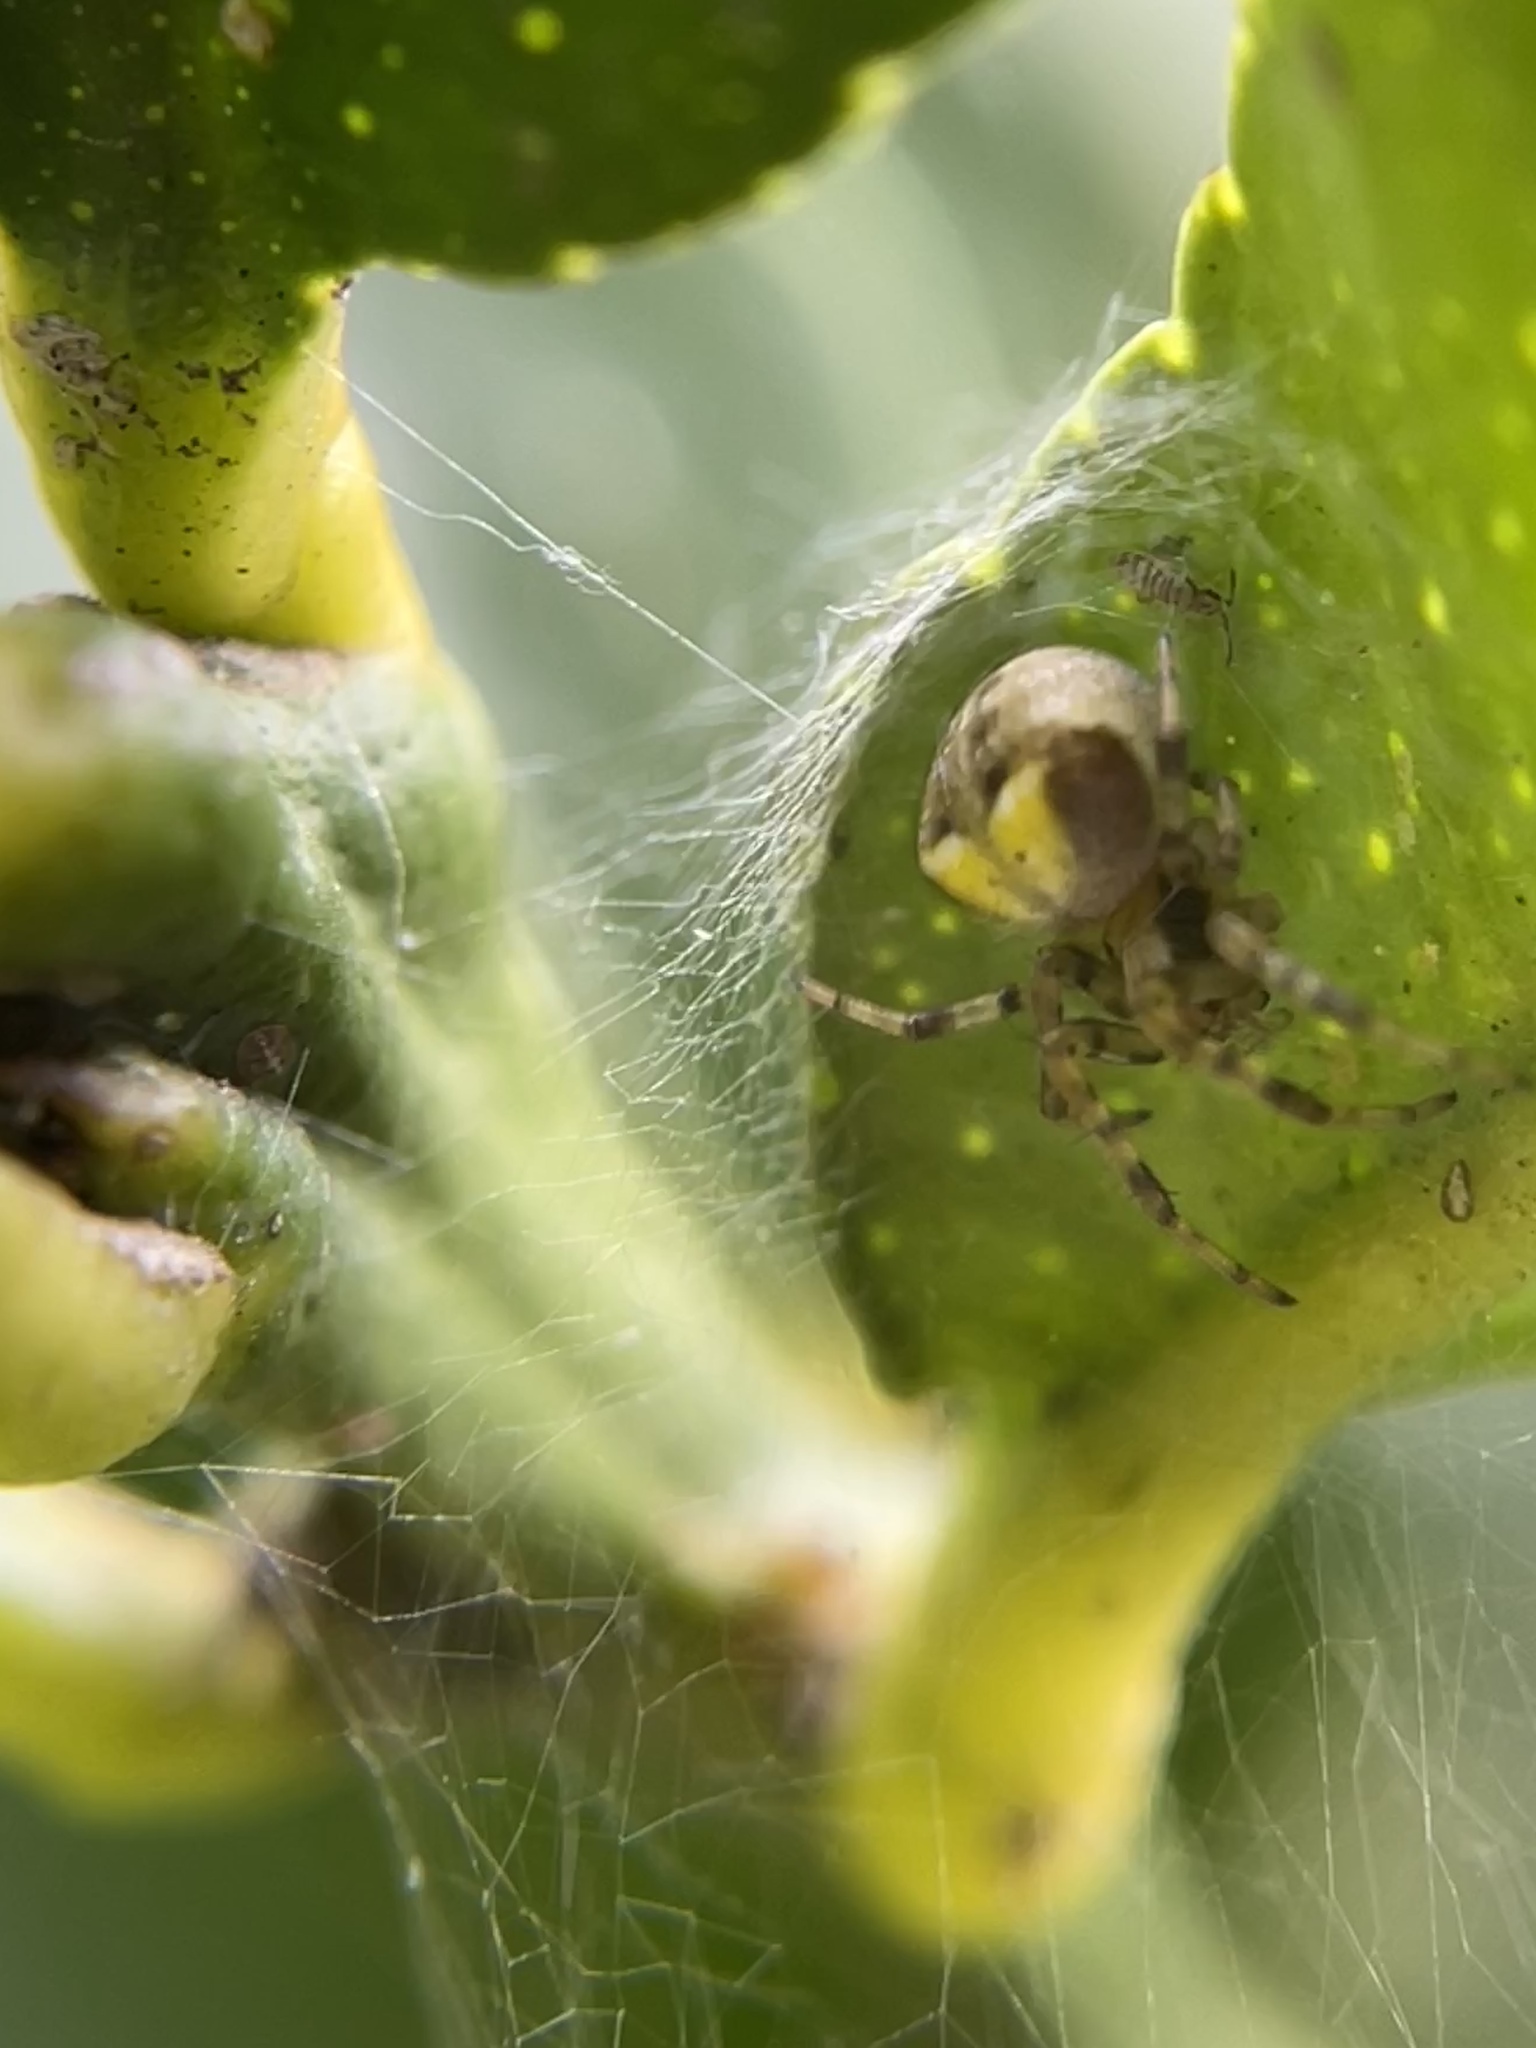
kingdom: Animalia
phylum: Arthropoda
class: Arachnida
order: Araneae
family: Araneidae
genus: Araneus
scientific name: Araneus albotriangulus
